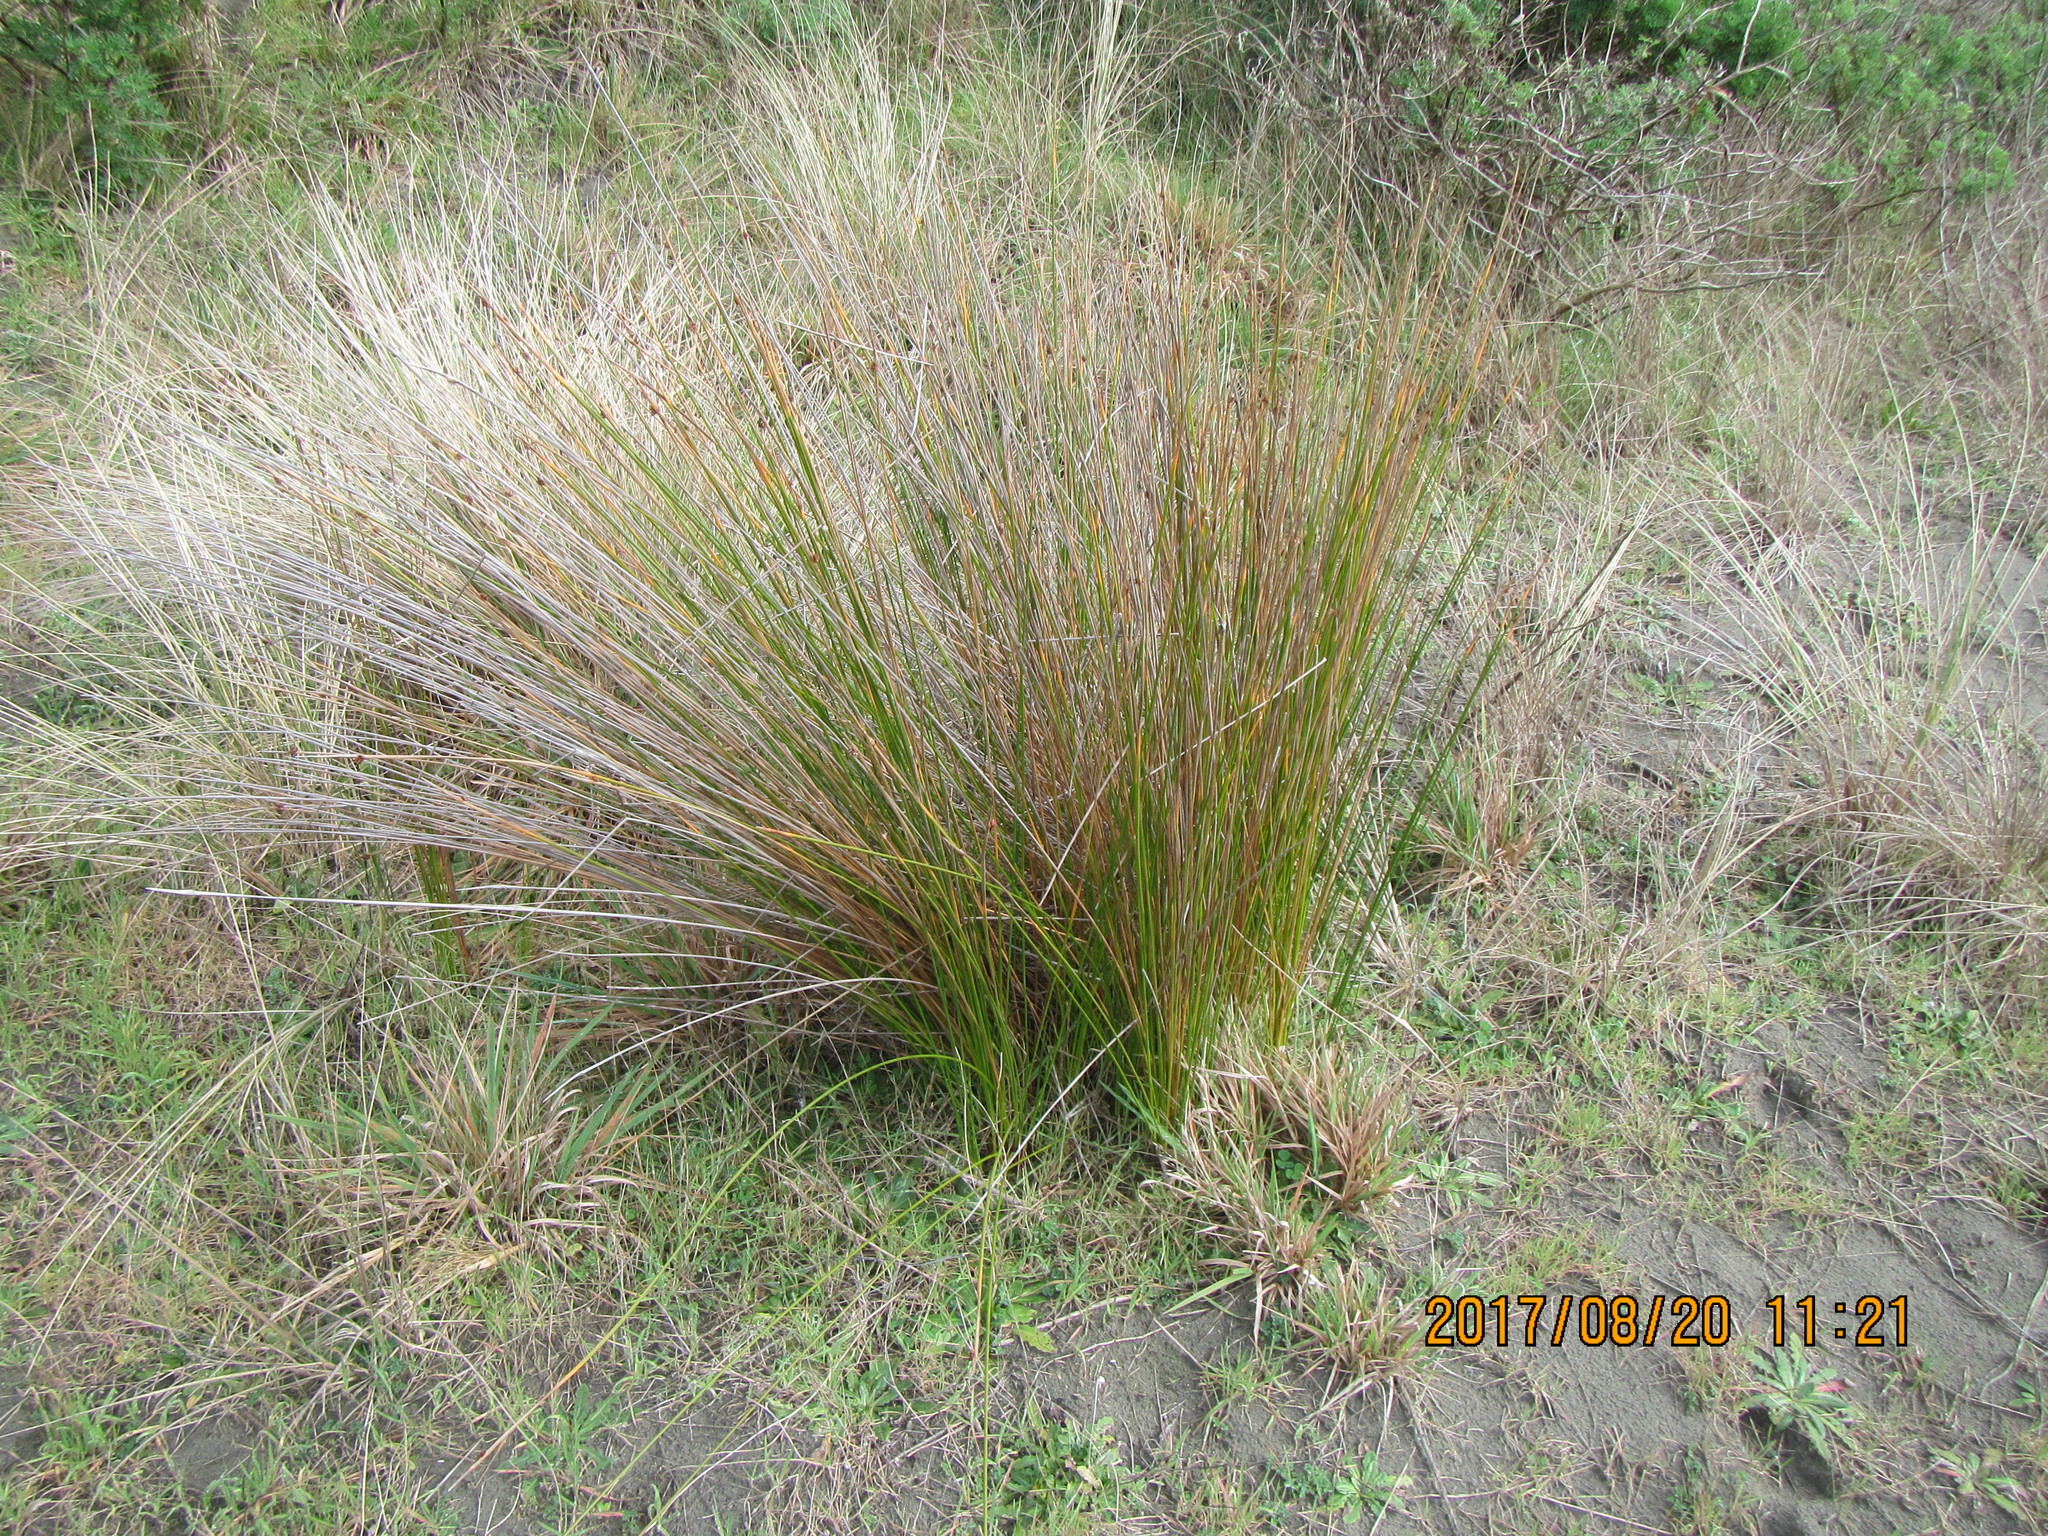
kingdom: Plantae
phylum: Tracheophyta
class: Liliopsida
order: Poales
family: Cyperaceae
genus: Ficinia
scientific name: Ficinia nodosa
